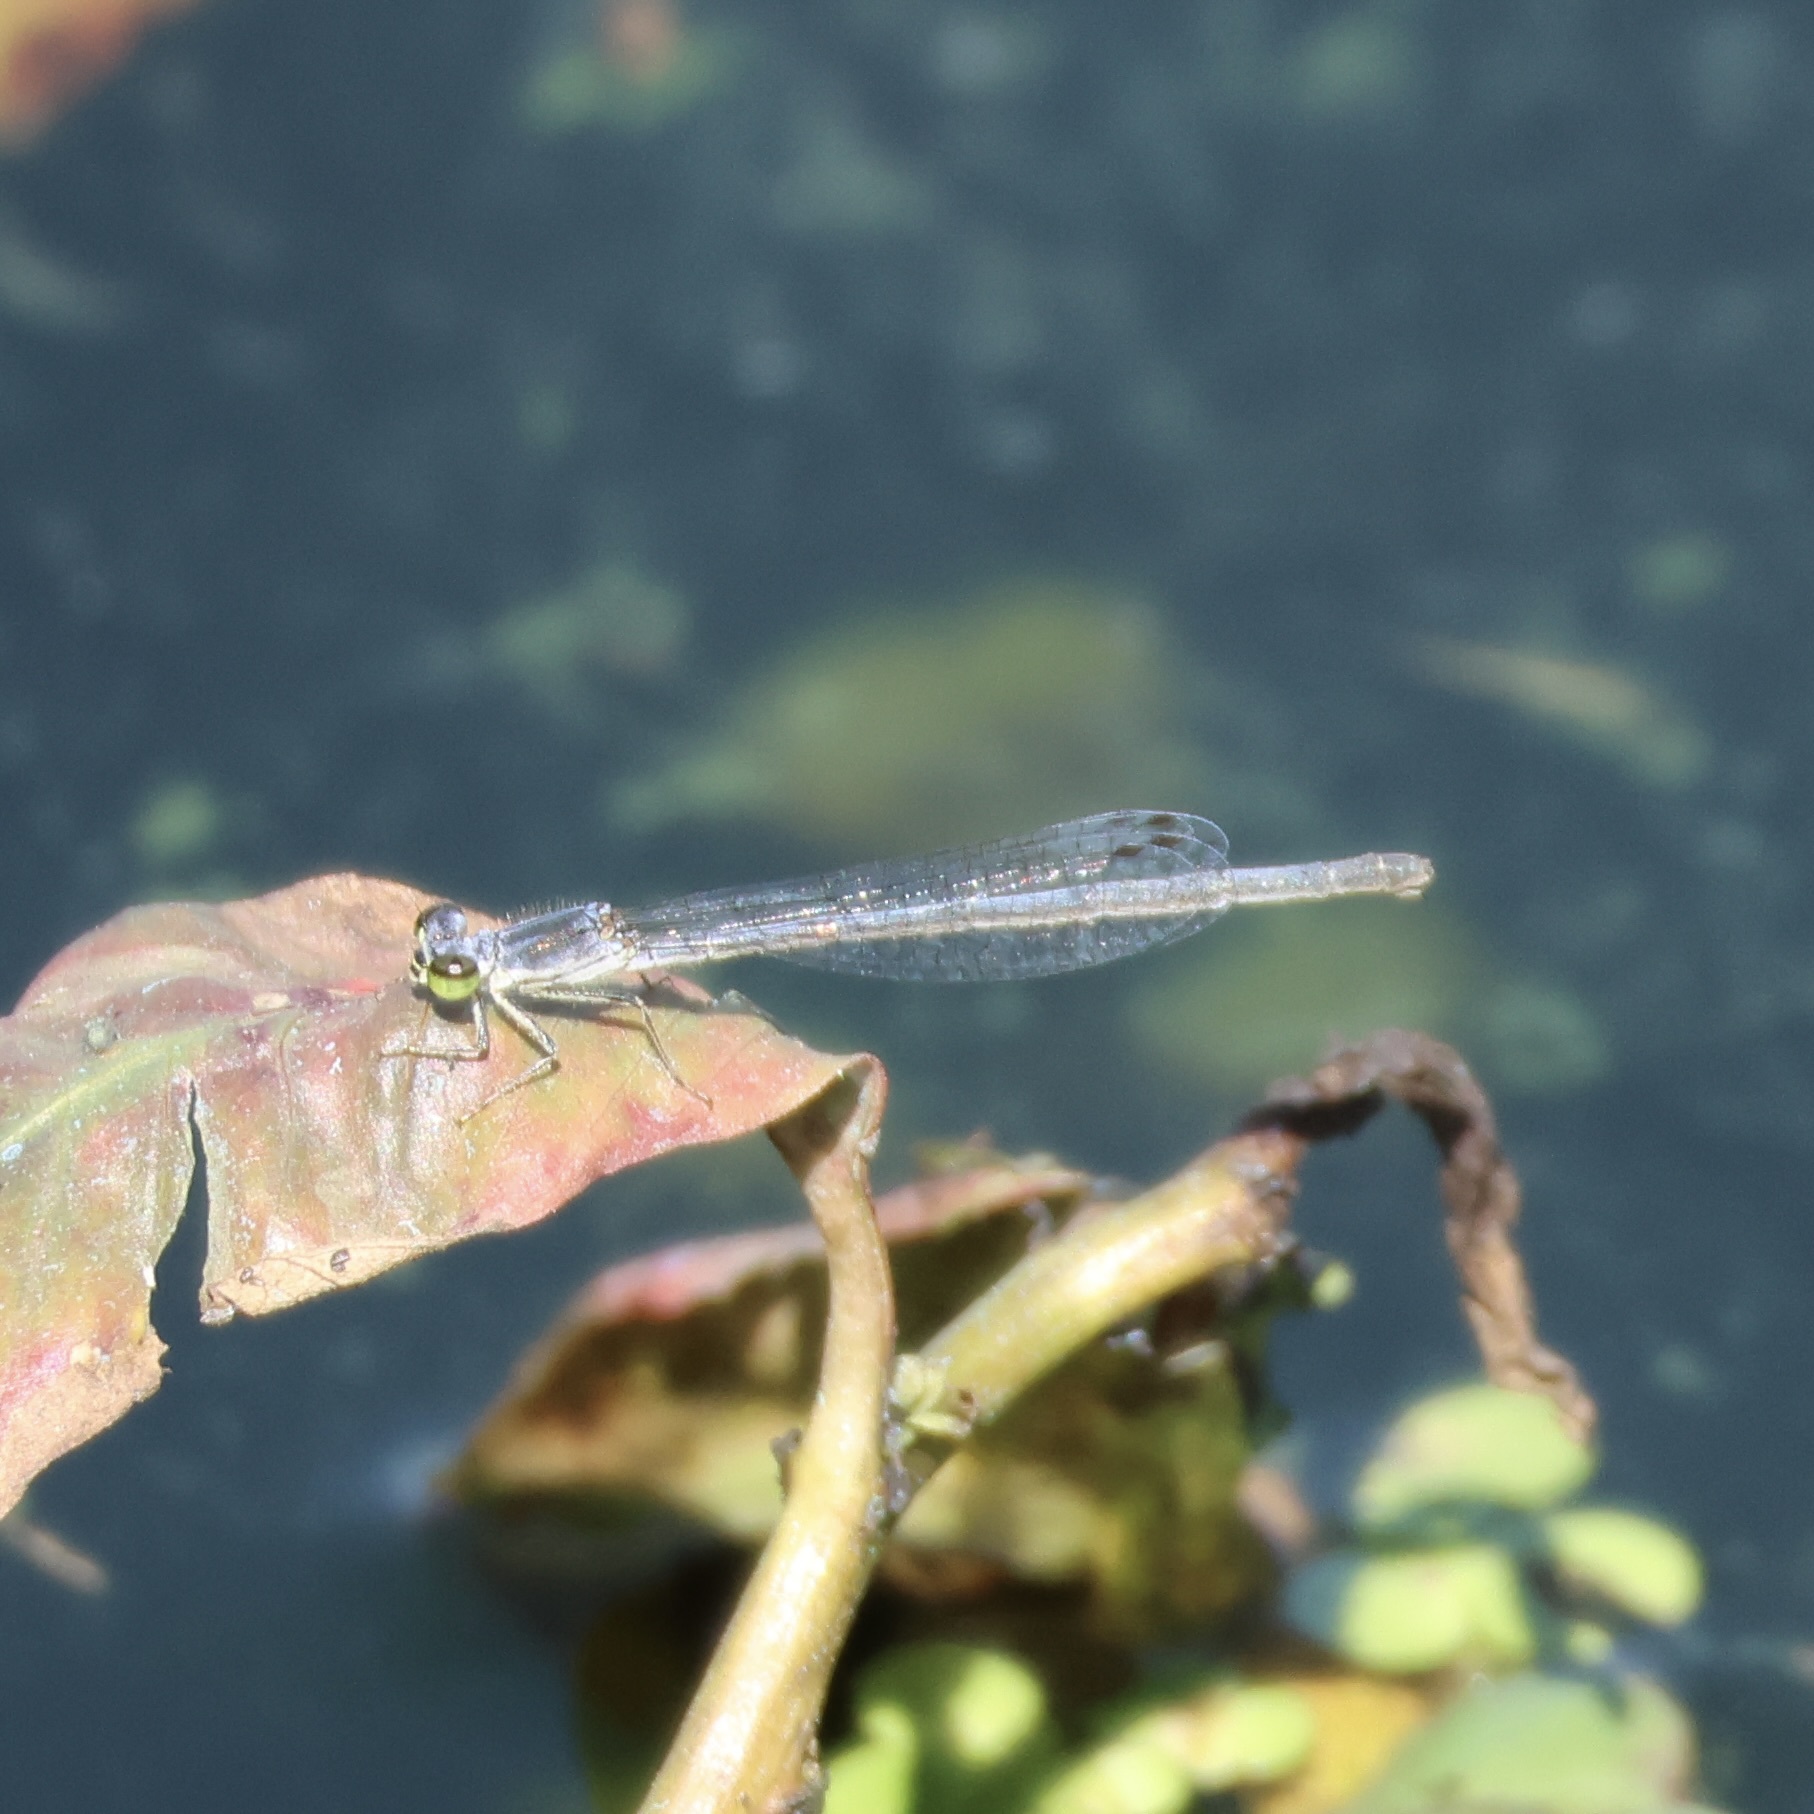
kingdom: Animalia
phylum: Arthropoda
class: Insecta
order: Odonata
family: Coenagrionidae
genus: Ischnura
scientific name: Ischnura posita
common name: Fragile forktail
